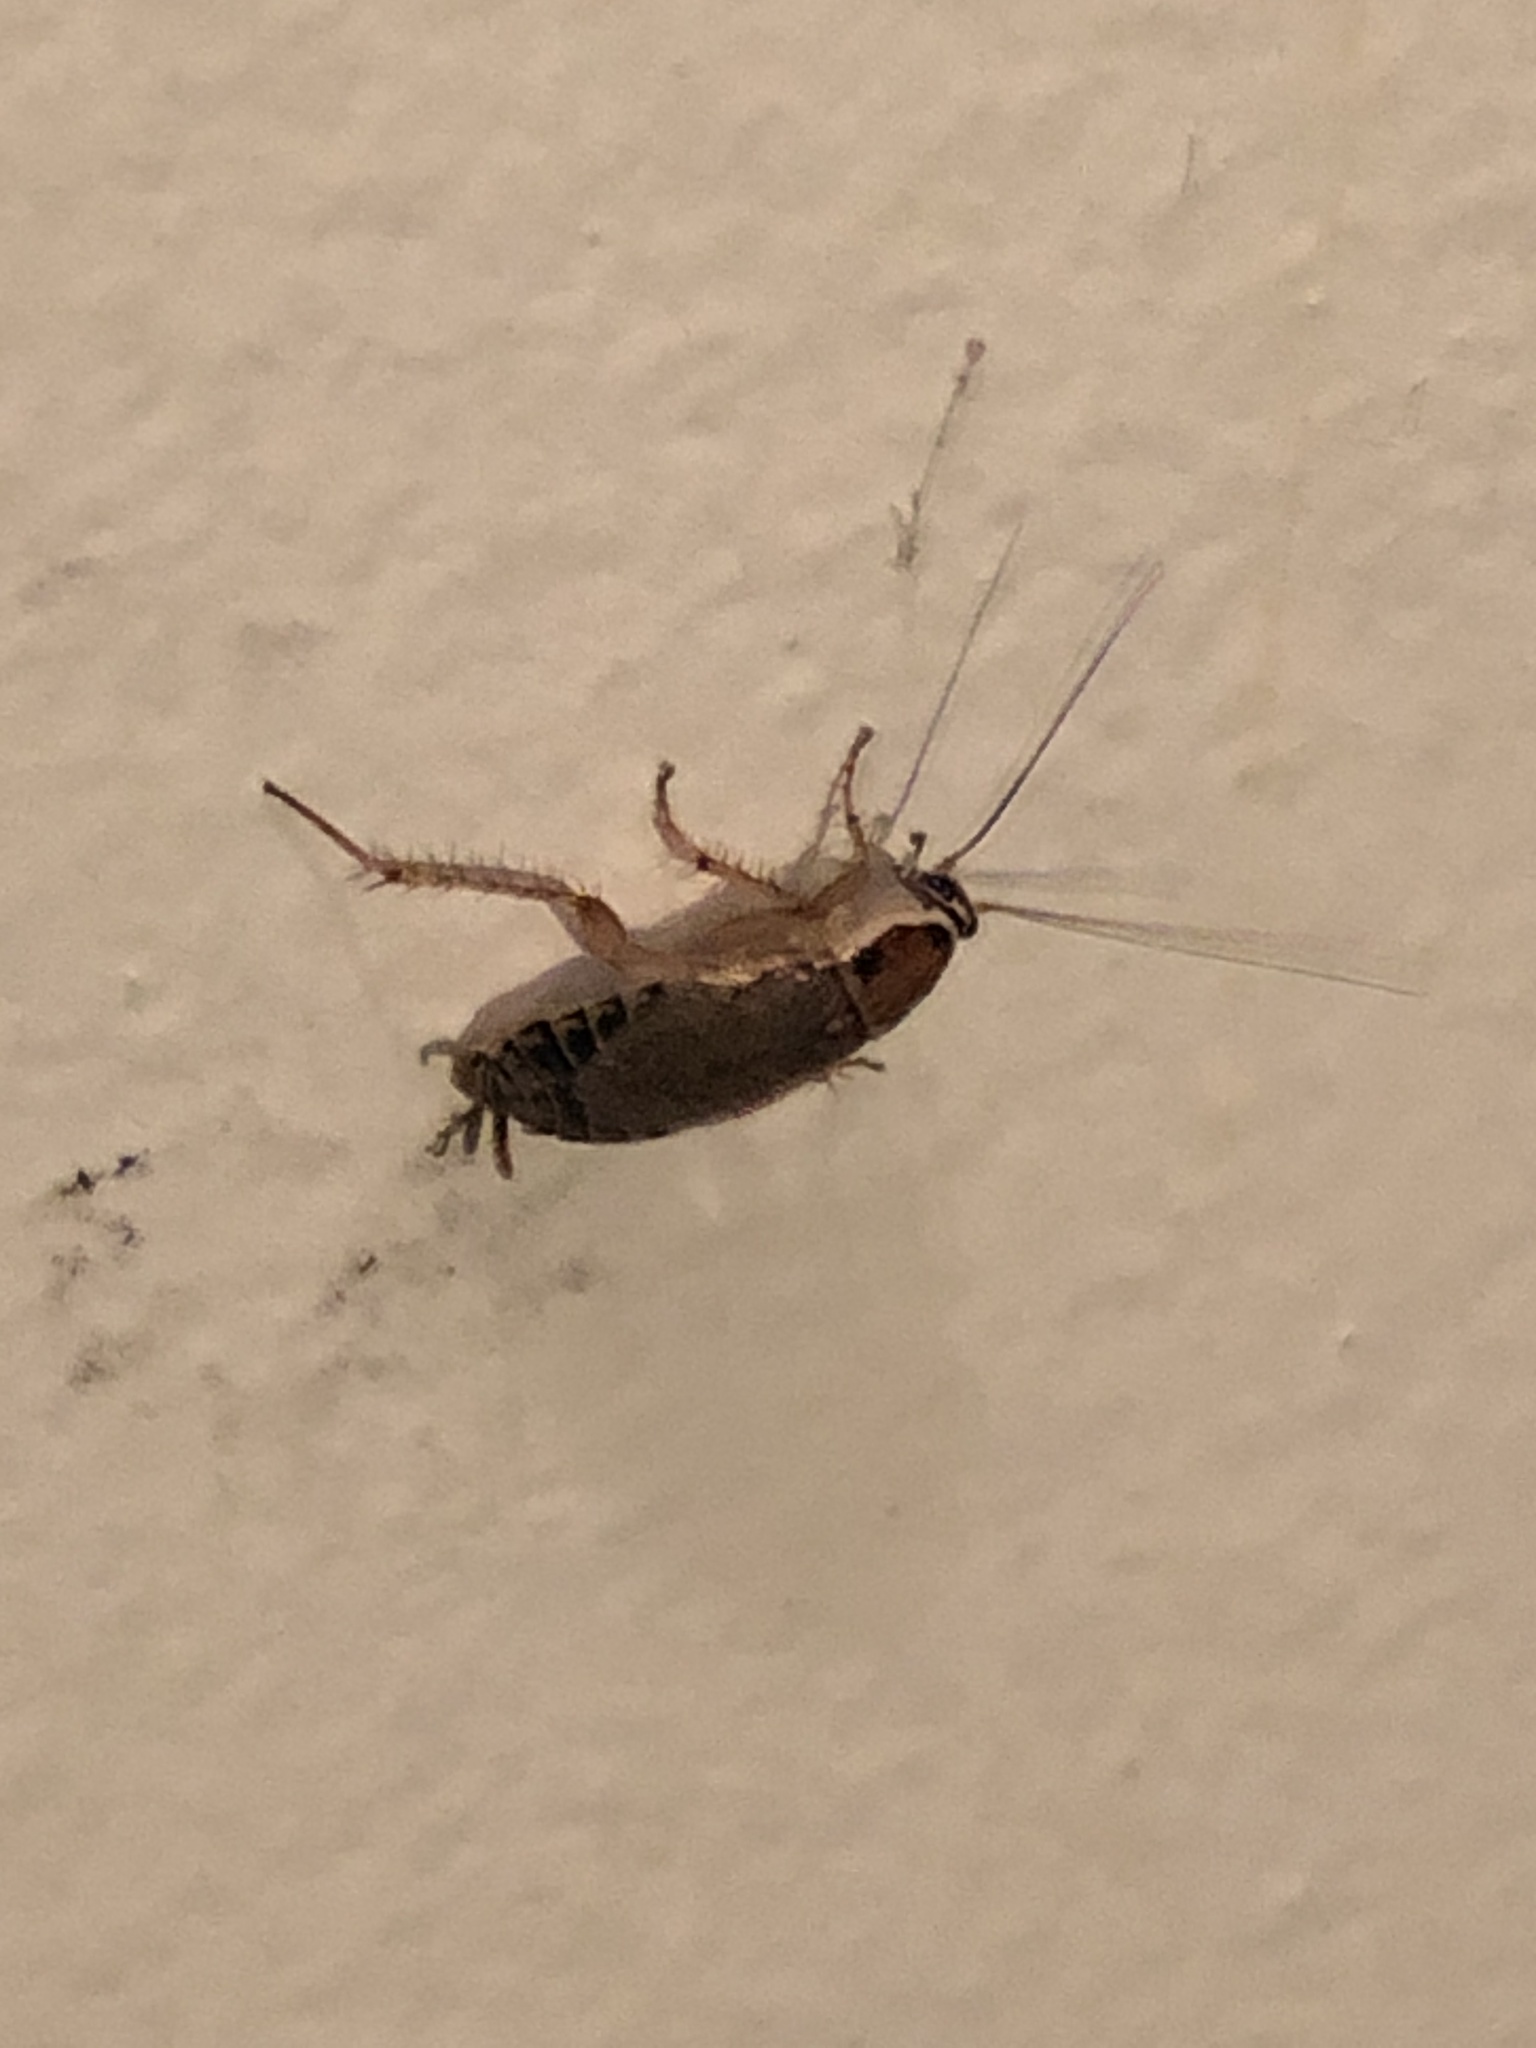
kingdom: Animalia
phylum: Arthropoda
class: Insecta
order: Blattodea
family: Ectobiidae
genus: Ectobius
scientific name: Ectobius lucidus
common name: Wood cockroach
